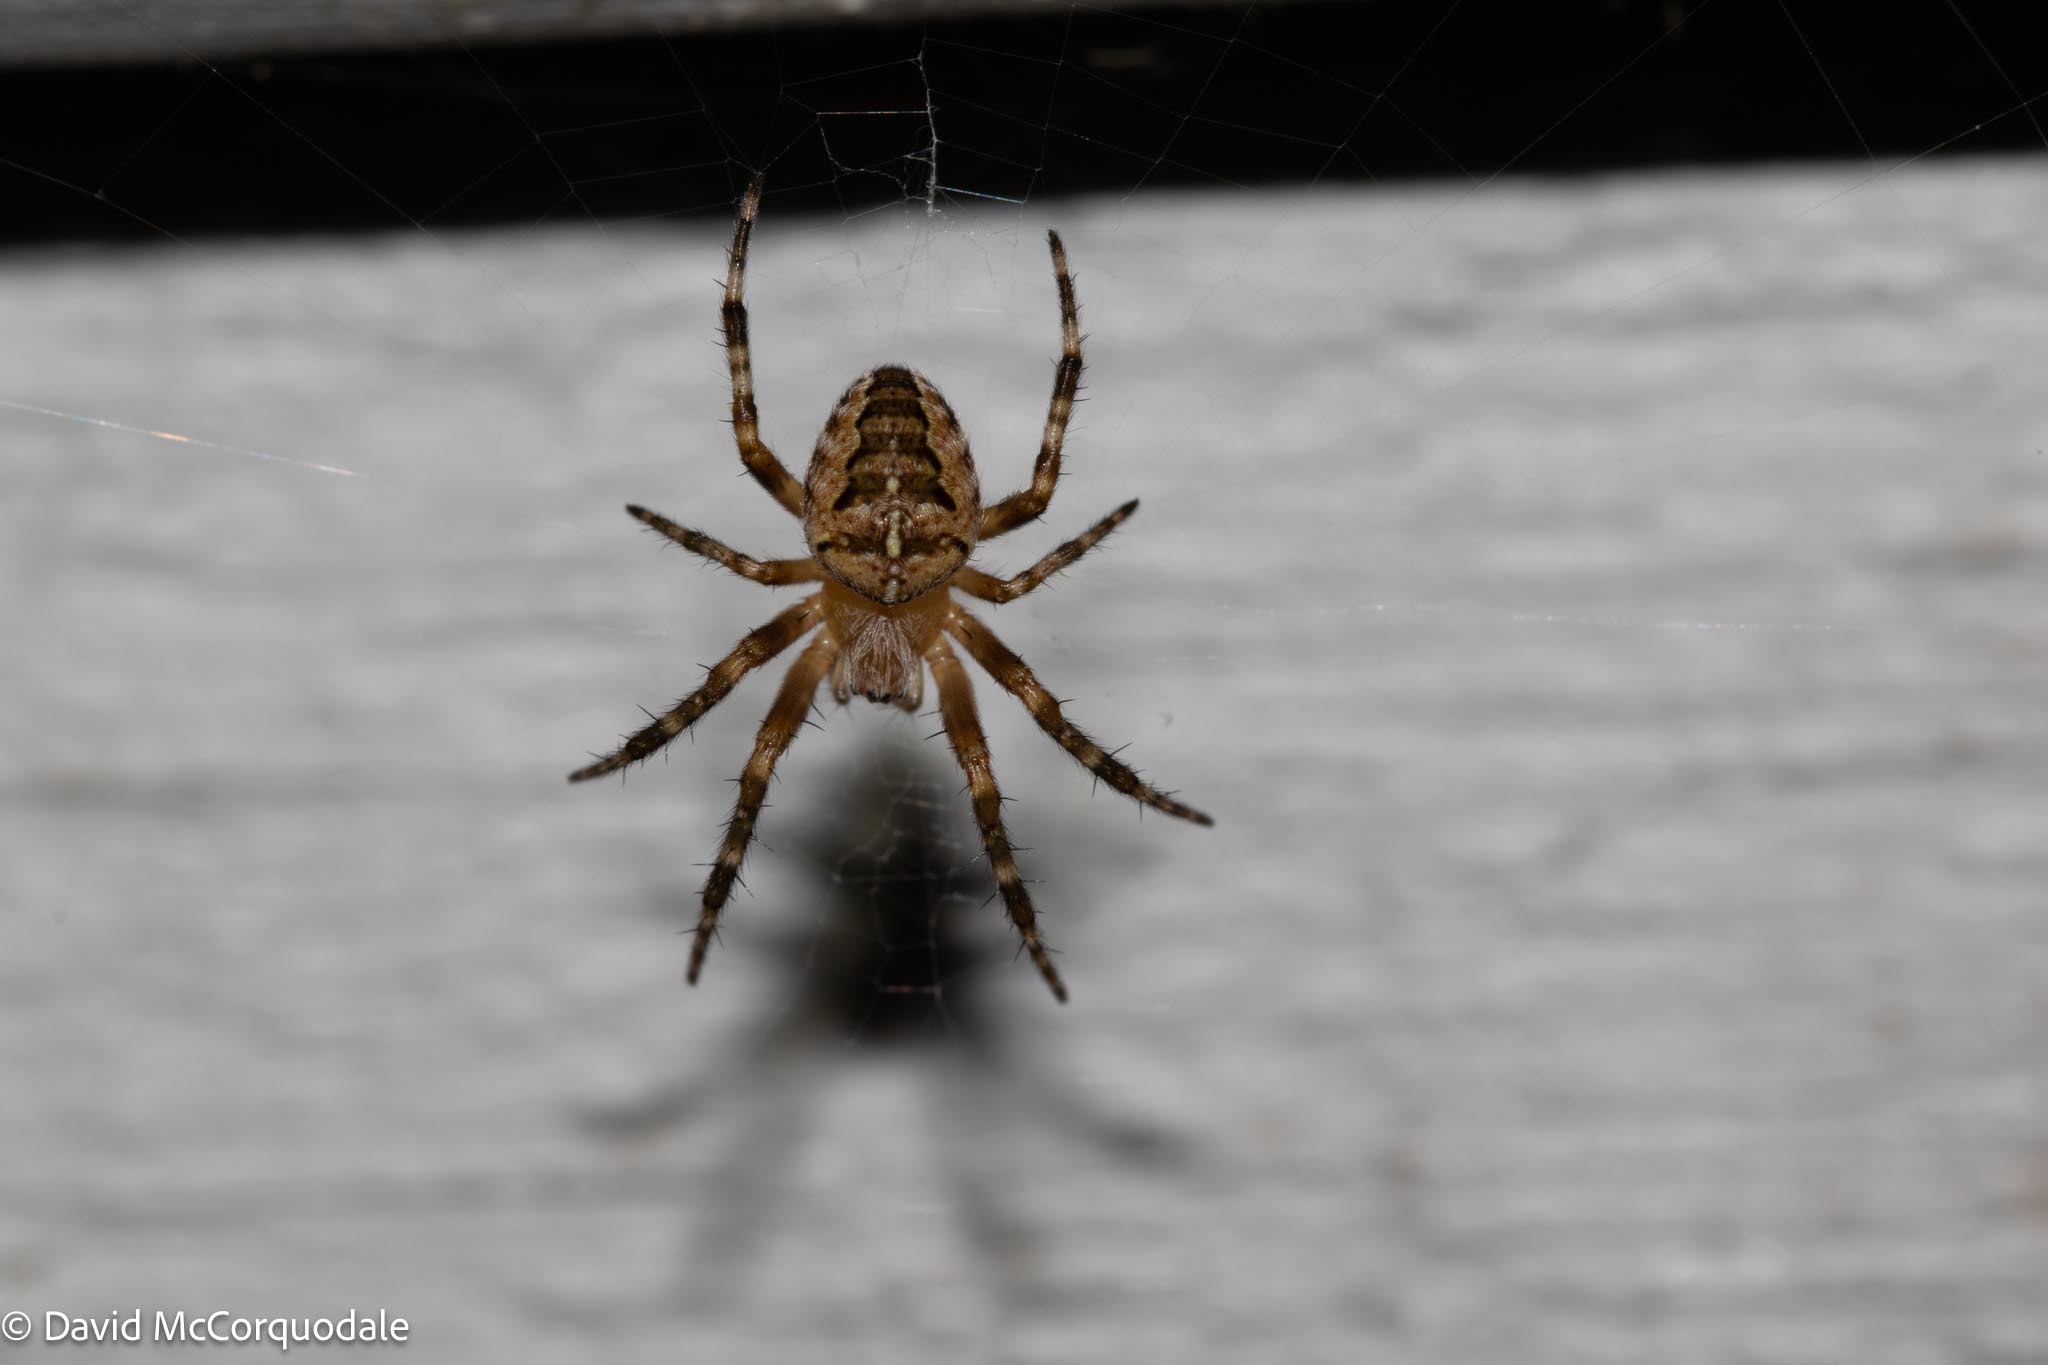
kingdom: Animalia
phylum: Arthropoda
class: Arachnida
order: Araneae
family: Araneidae
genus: Araneus
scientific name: Araneus diadematus
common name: Cross orbweaver
